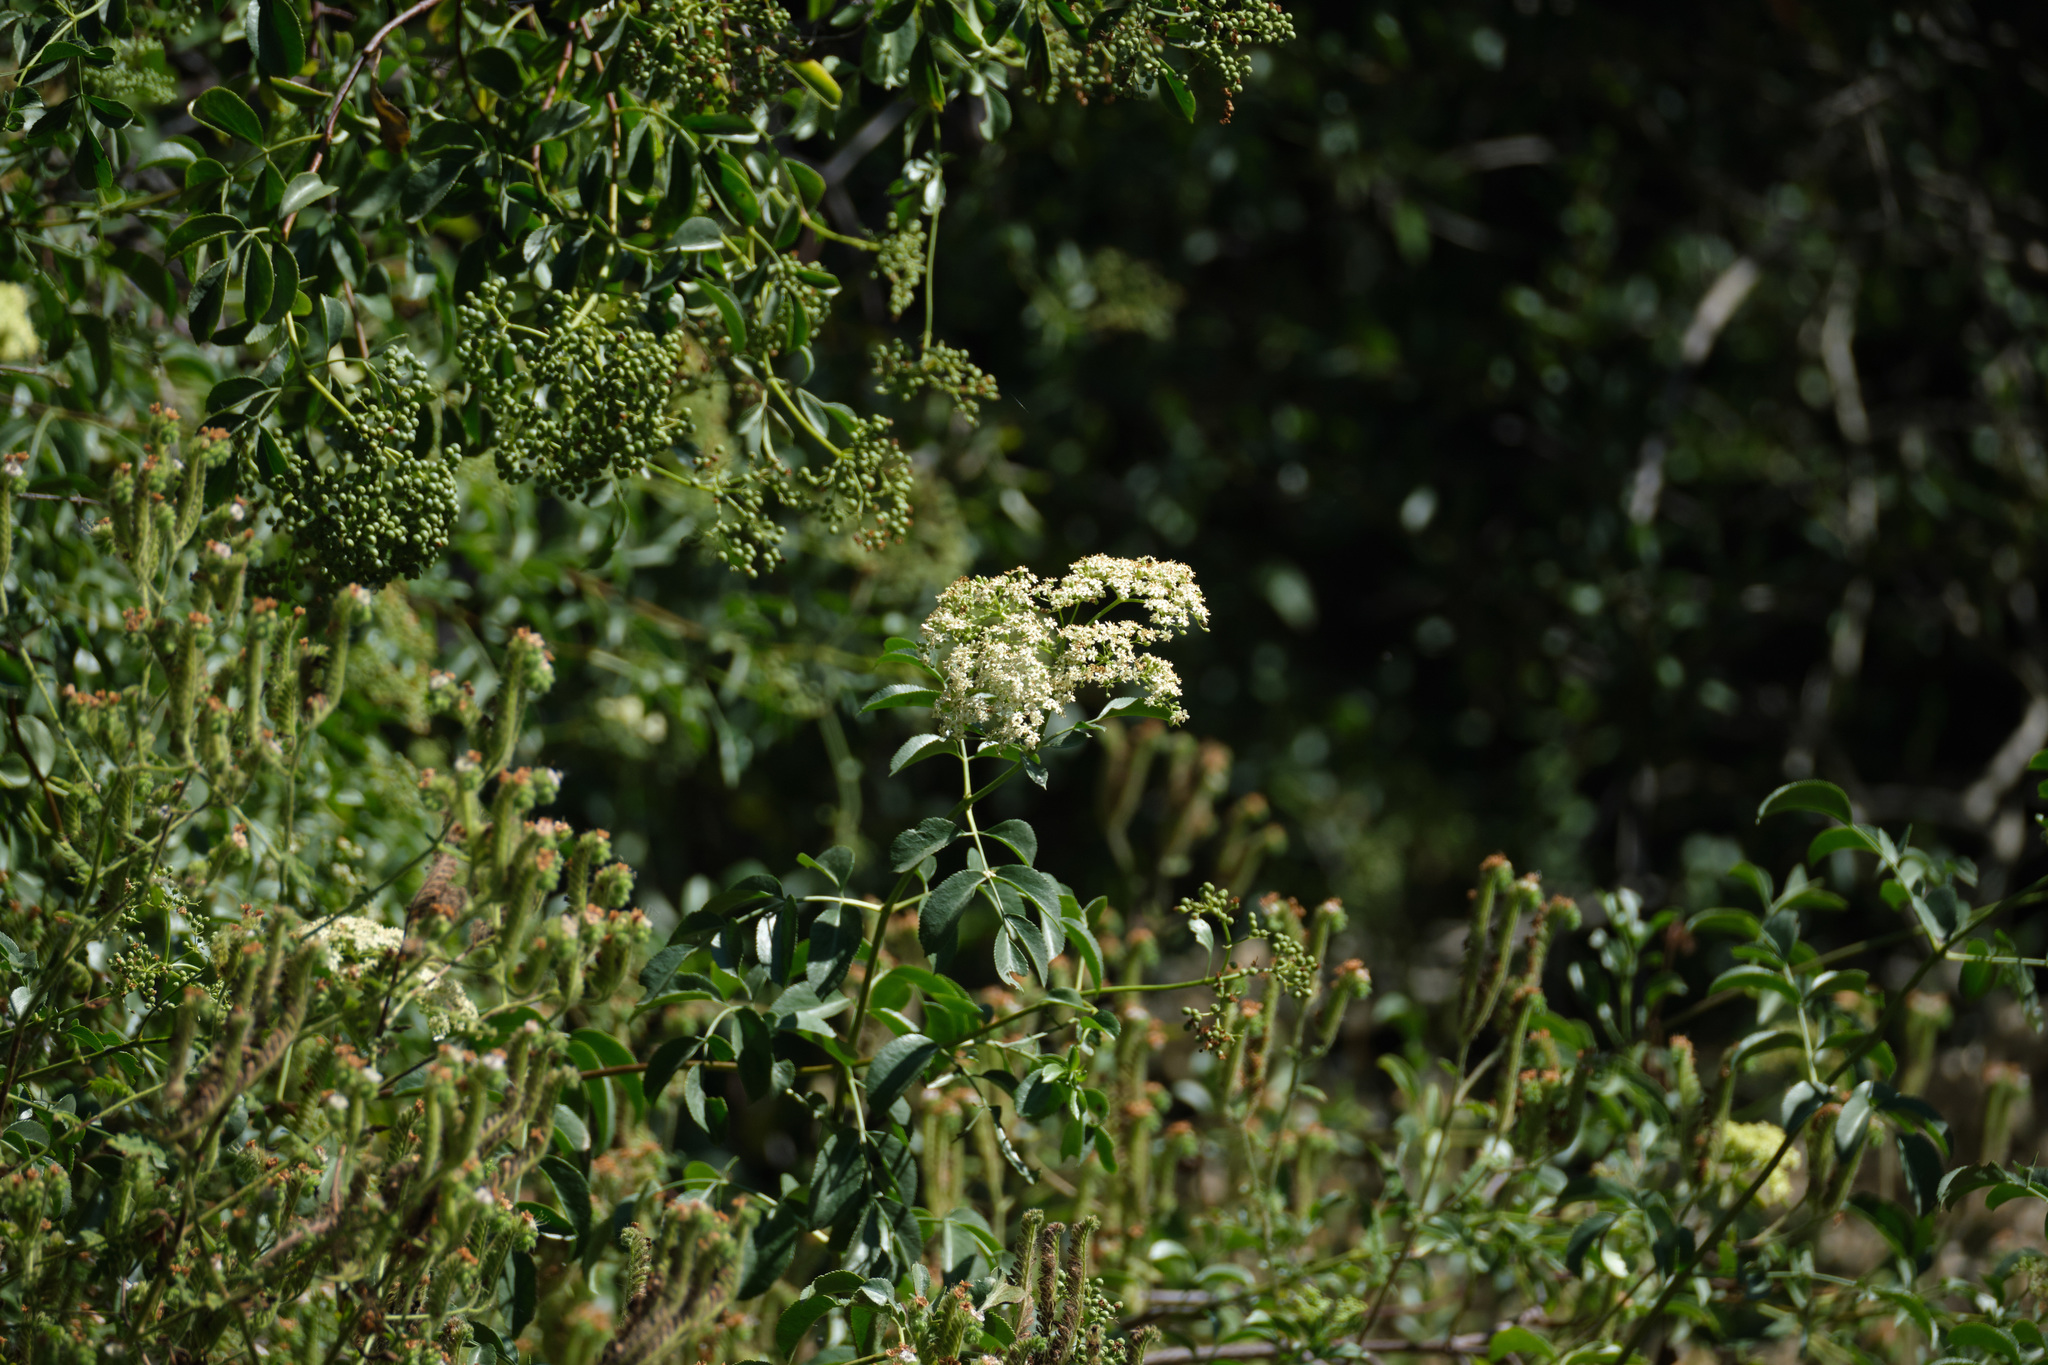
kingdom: Plantae
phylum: Tracheophyta
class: Magnoliopsida
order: Dipsacales
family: Viburnaceae
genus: Sambucus
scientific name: Sambucus cerulea
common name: Blue elder
